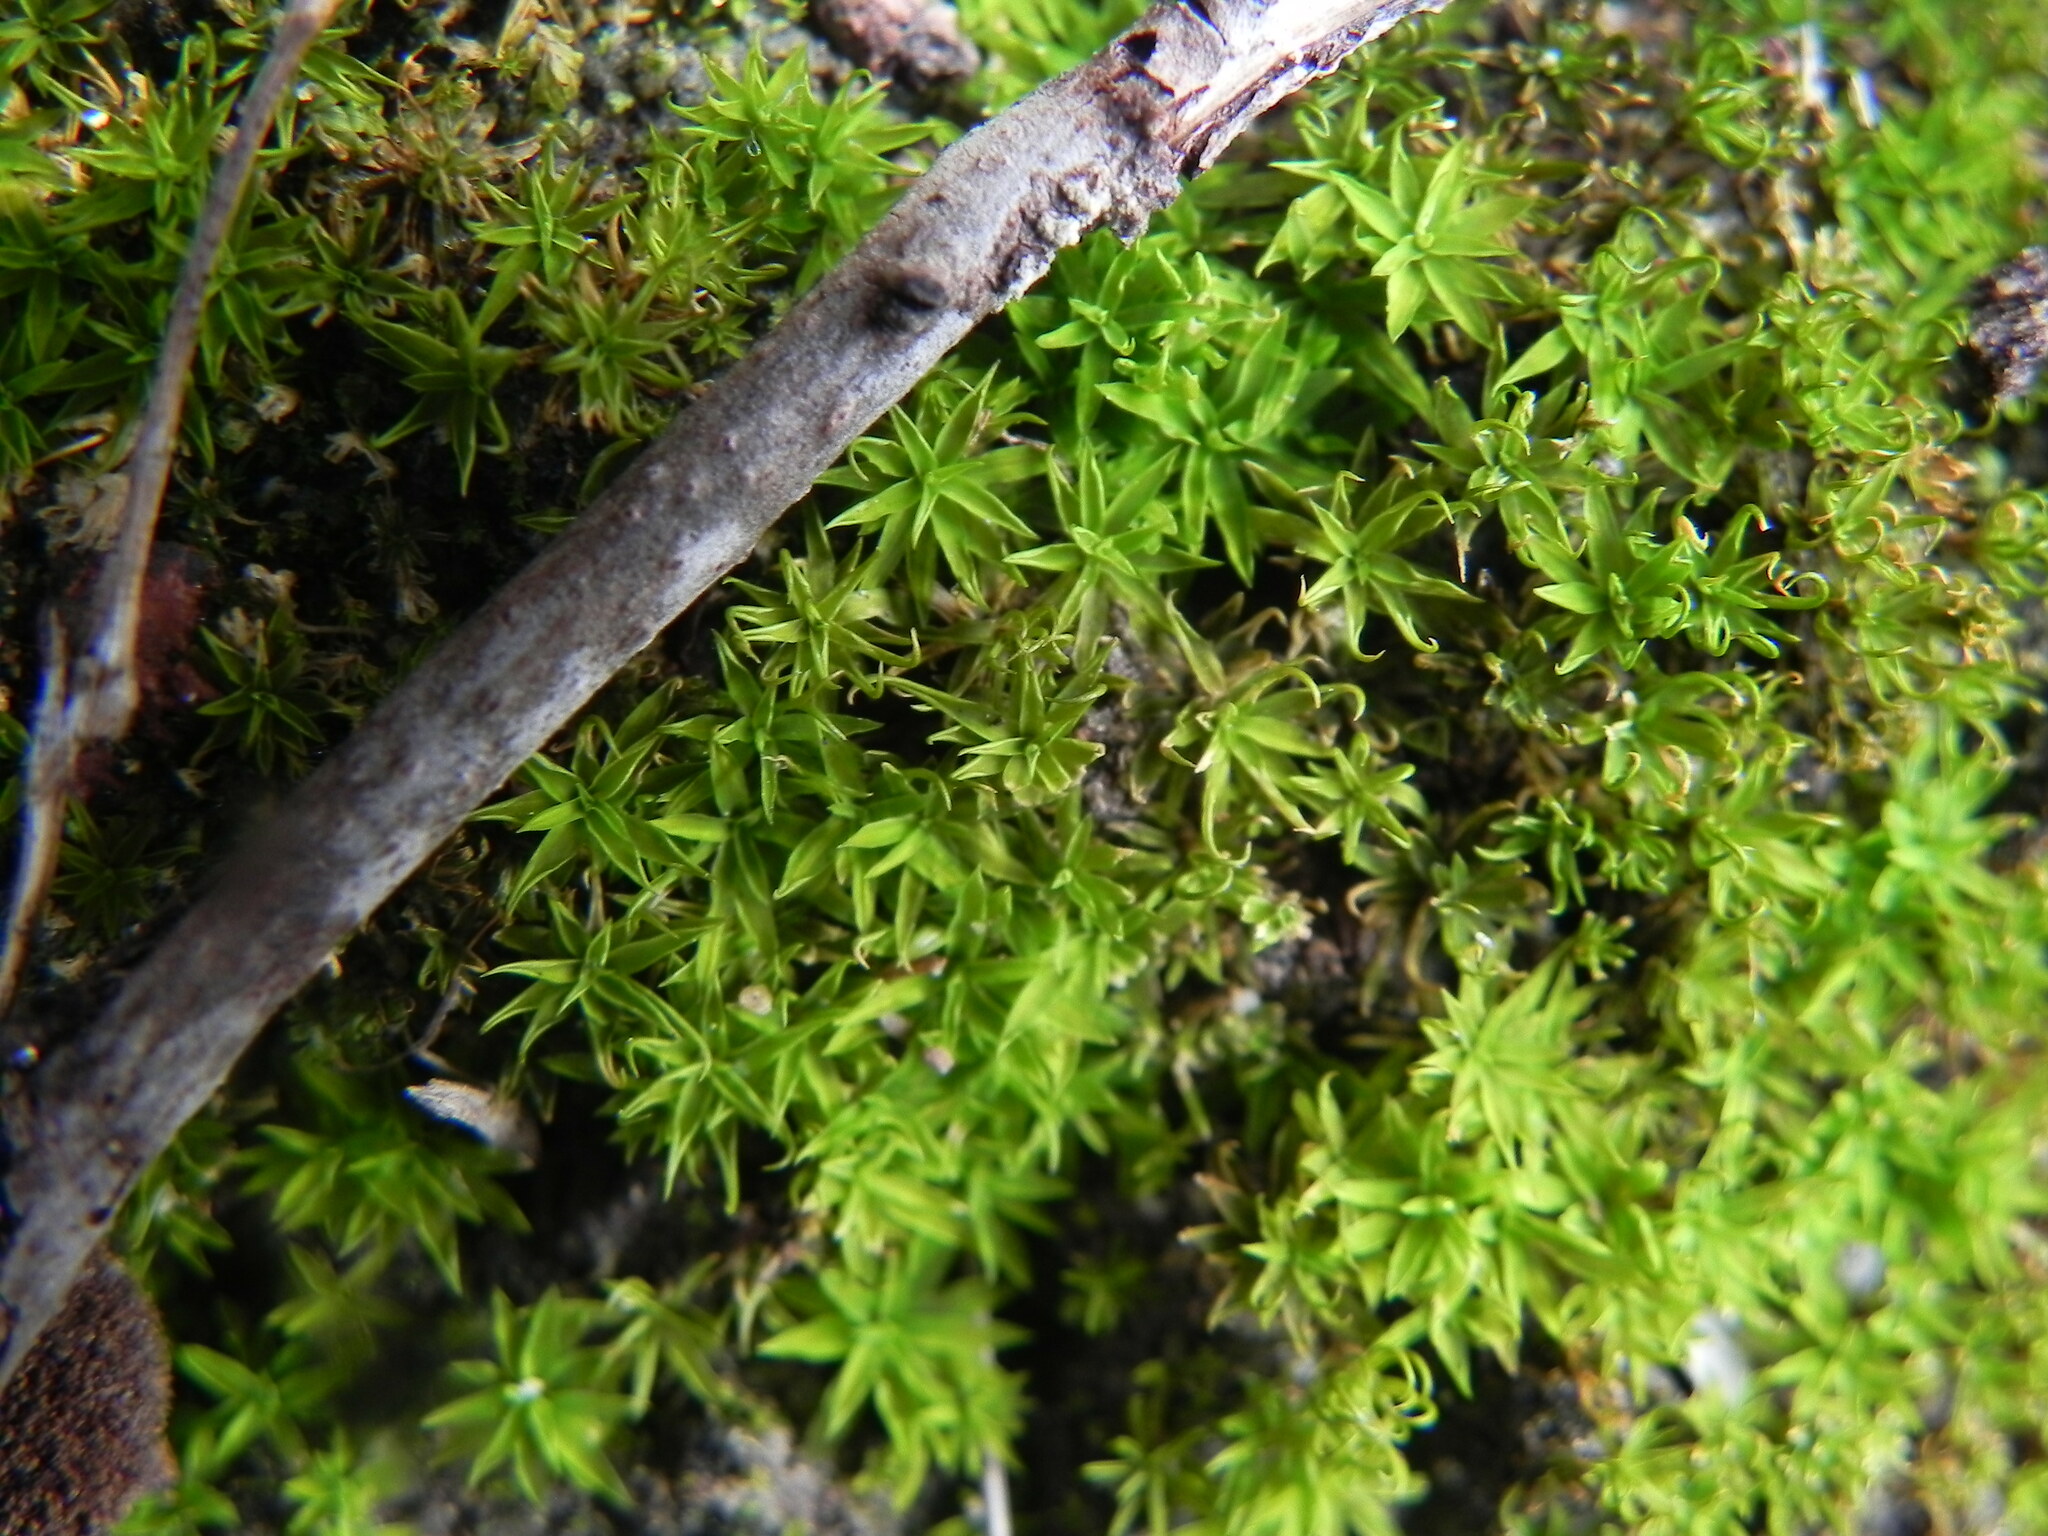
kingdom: Plantae
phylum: Bryophyta
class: Bryopsida
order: Pottiales
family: Pottiaceae
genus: Timmiella
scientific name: Timmiella
